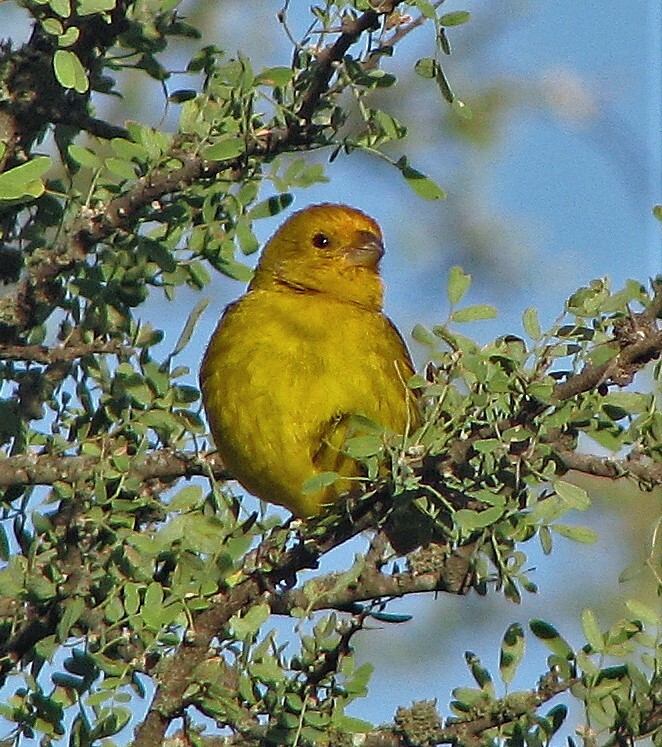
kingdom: Animalia
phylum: Chordata
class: Aves
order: Passeriformes
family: Thraupidae
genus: Sicalis
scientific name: Sicalis flaveola
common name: Saffron finch
